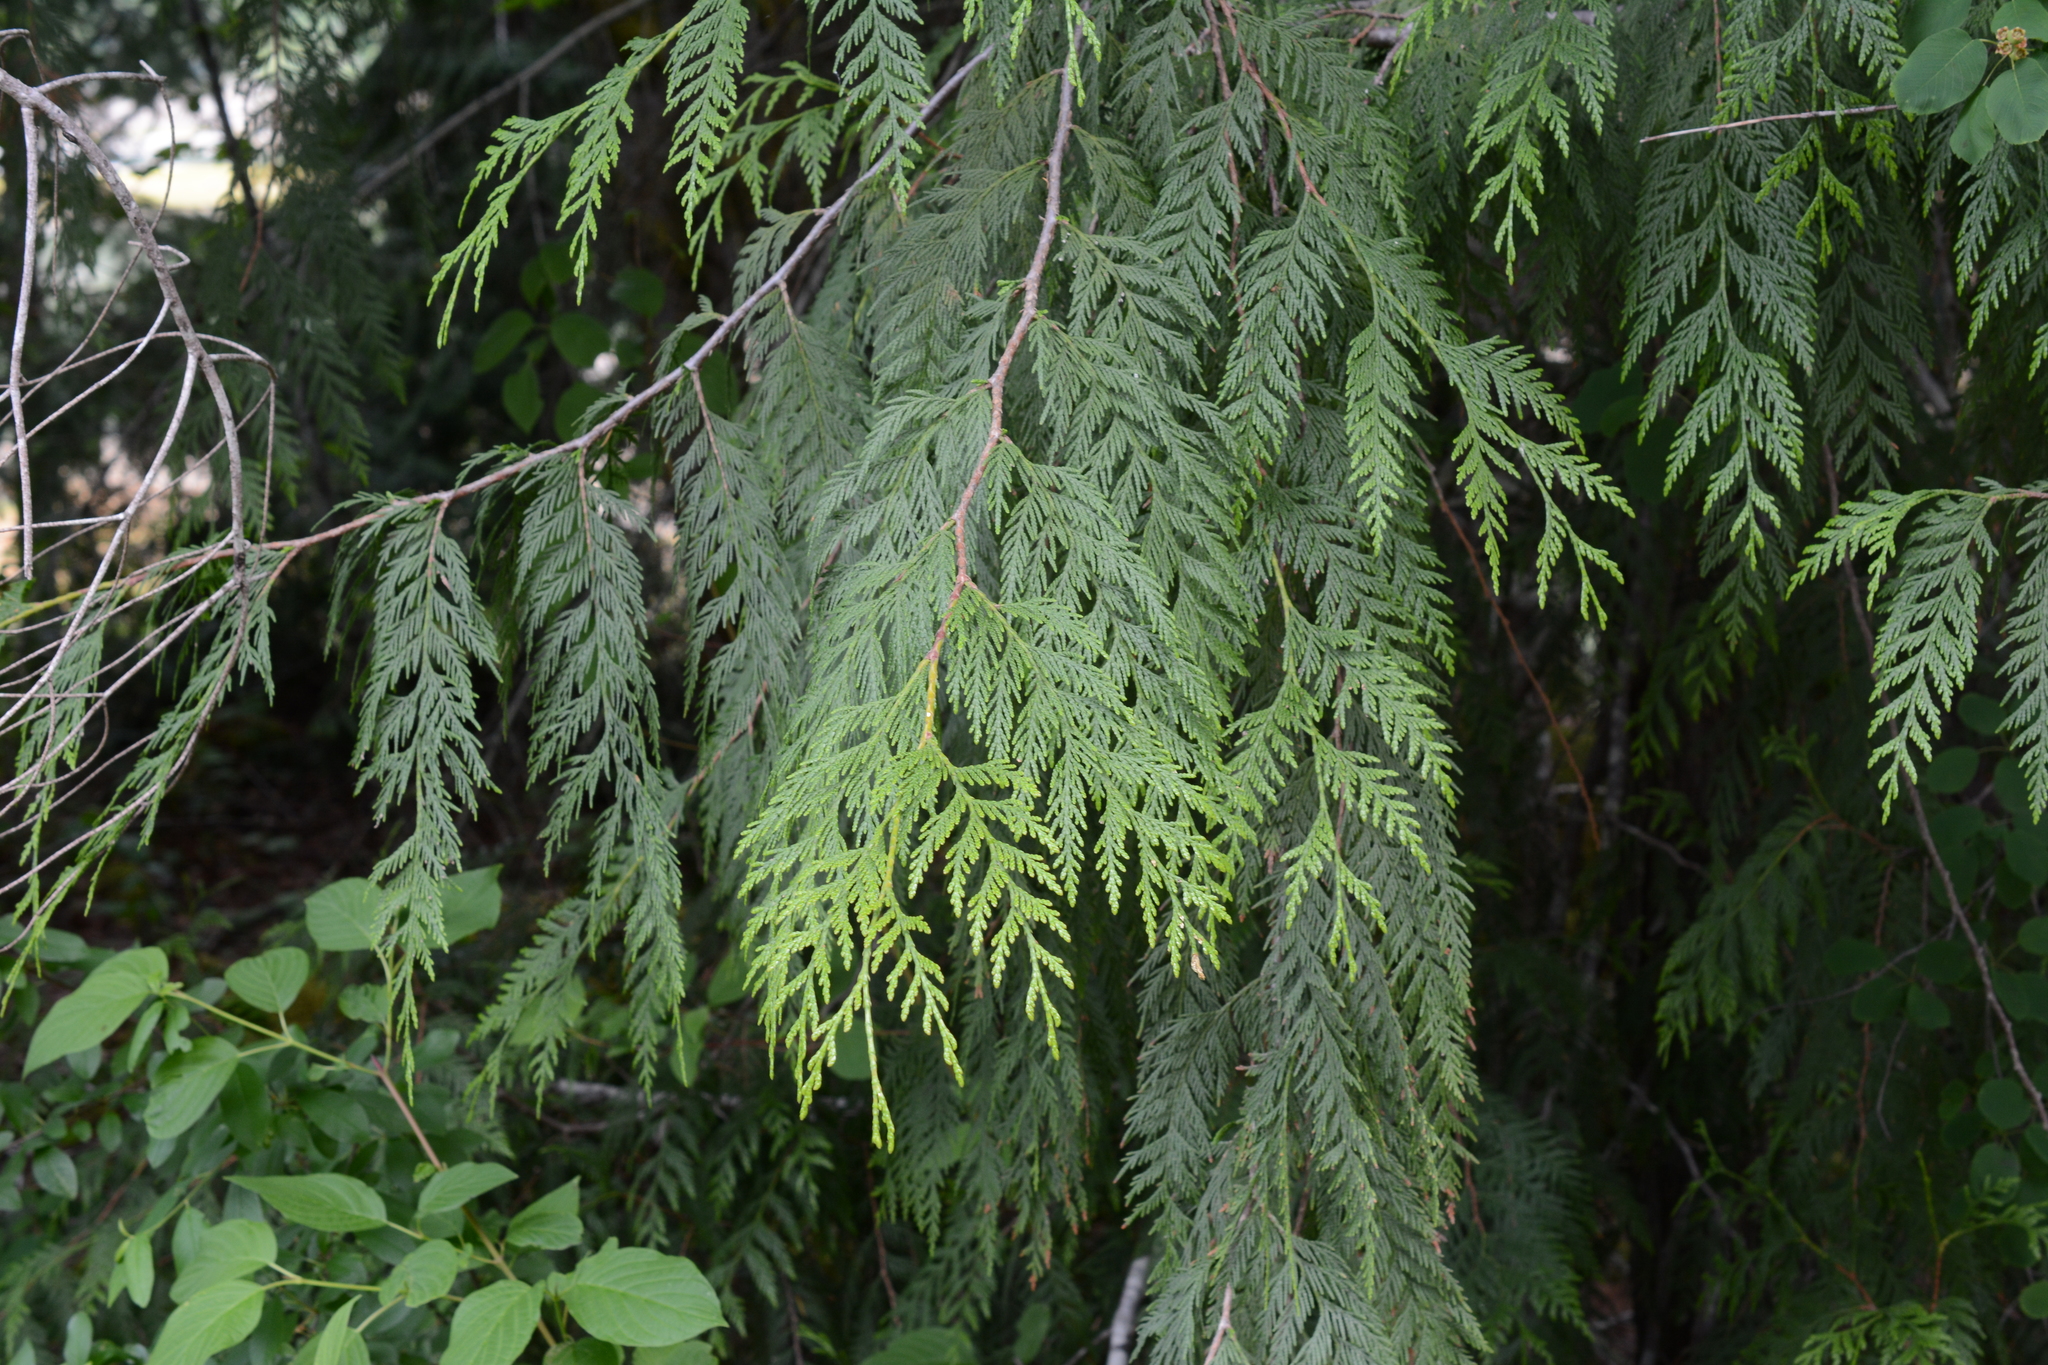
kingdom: Plantae
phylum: Tracheophyta
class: Pinopsida
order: Pinales
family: Cupressaceae
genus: Thuja
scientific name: Thuja plicata
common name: Western red-cedar
